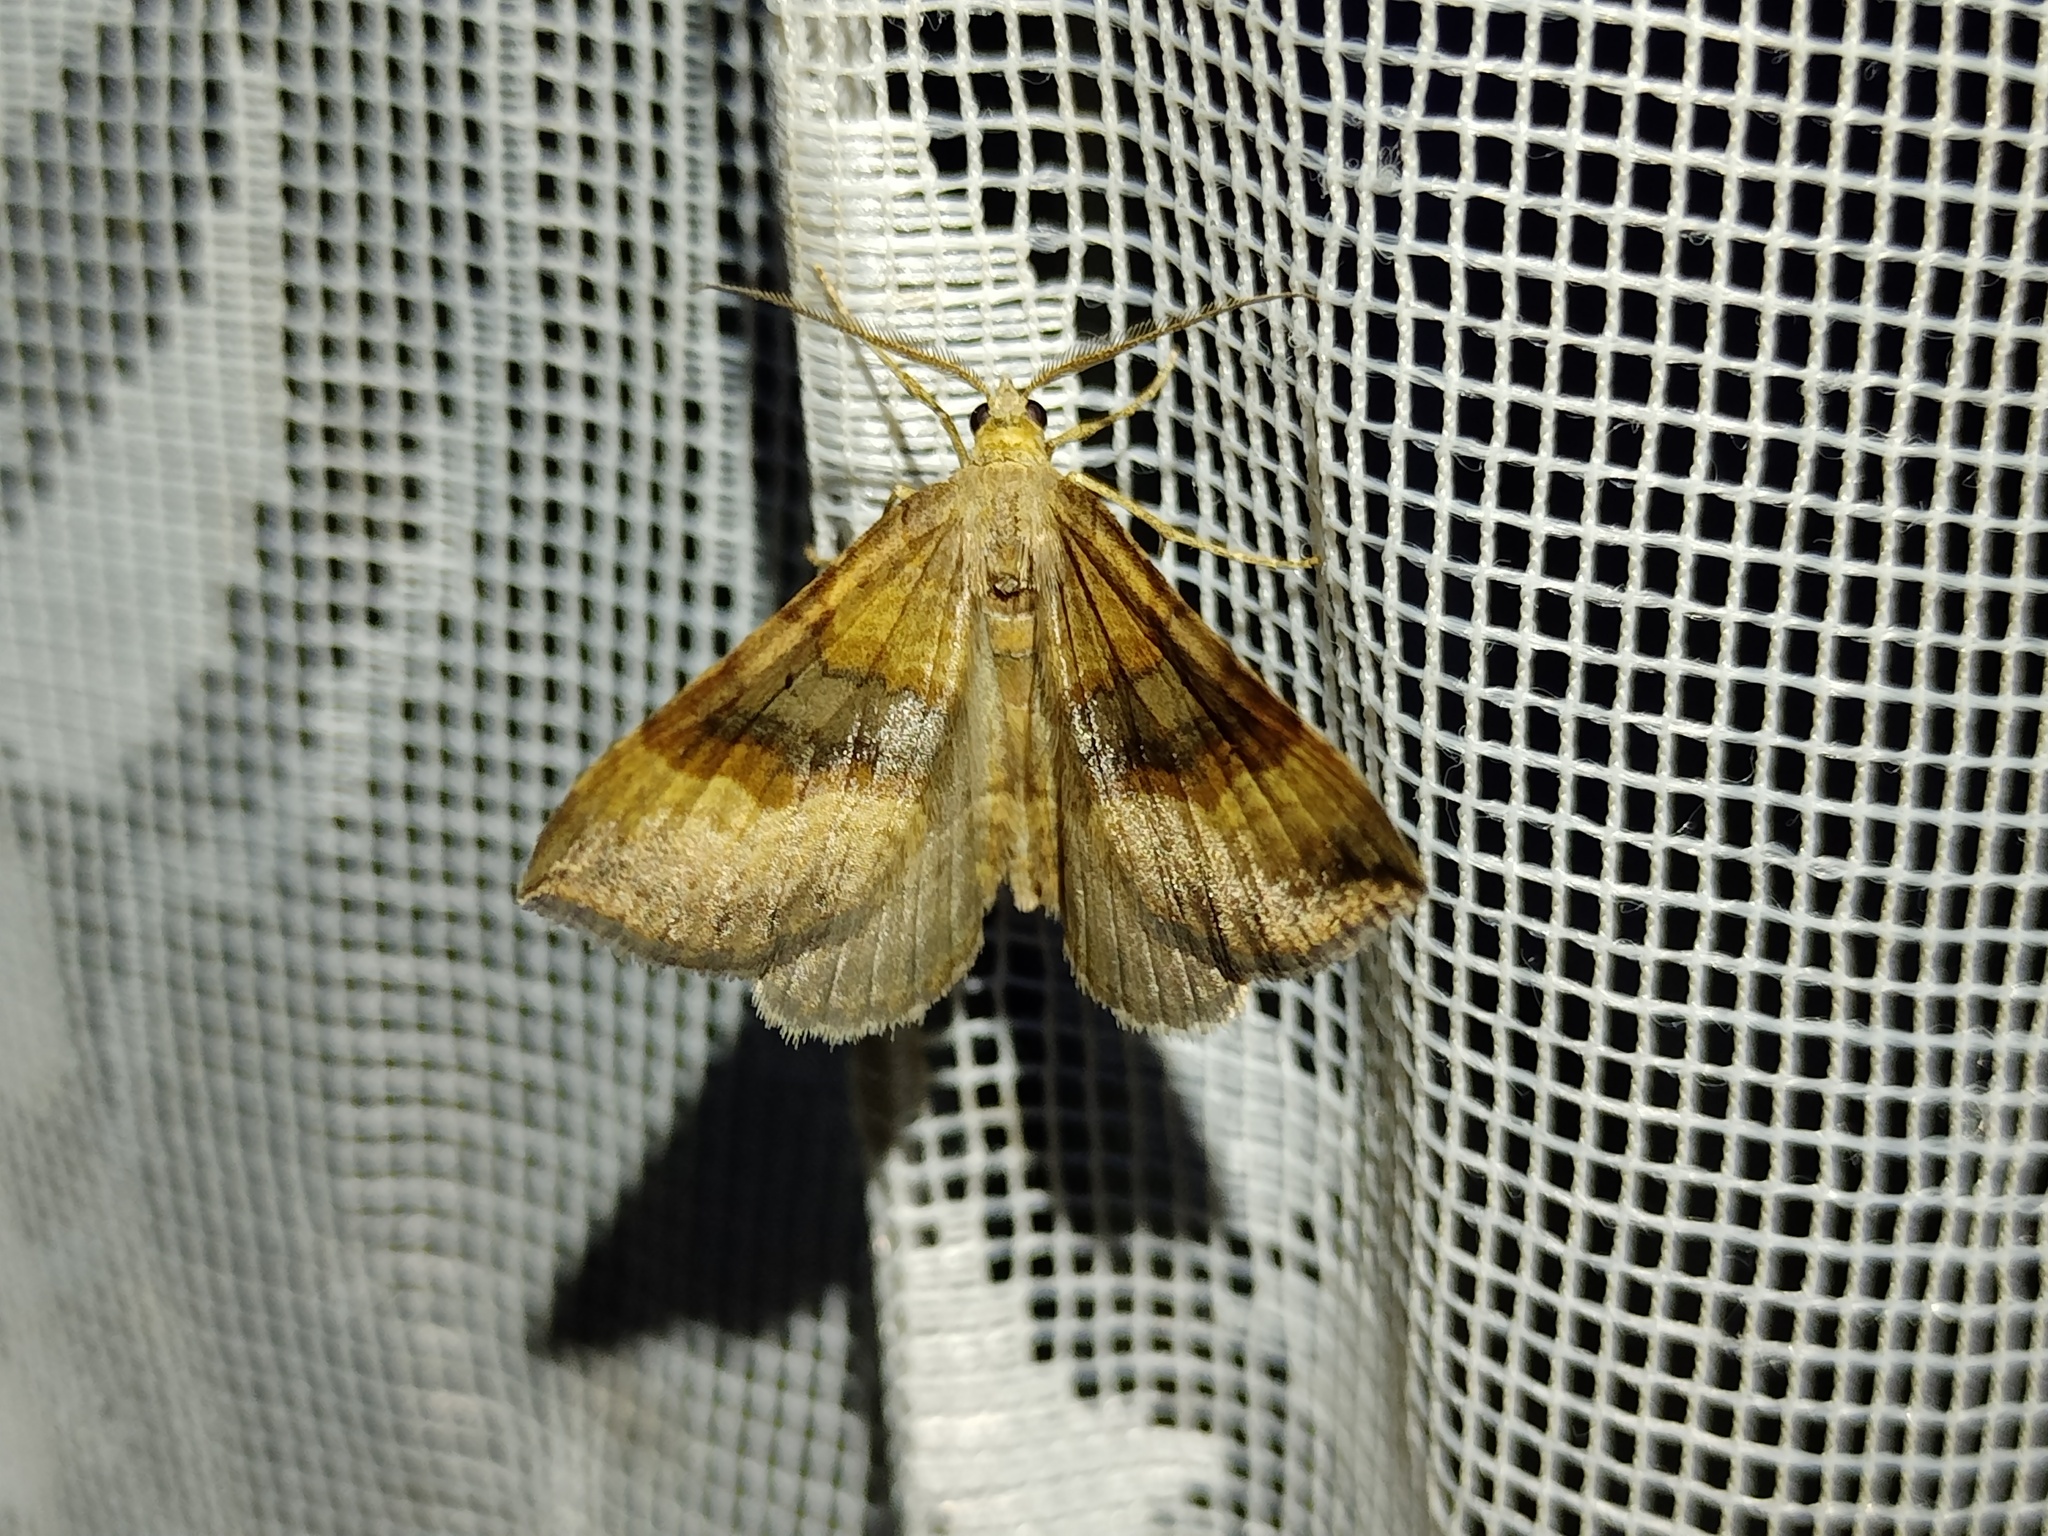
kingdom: Animalia
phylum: Arthropoda
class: Insecta
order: Lepidoptera
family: Geometridae
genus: Scotopteryx
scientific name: Scotopteryx chenopodiata
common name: Shaded broad-bar
